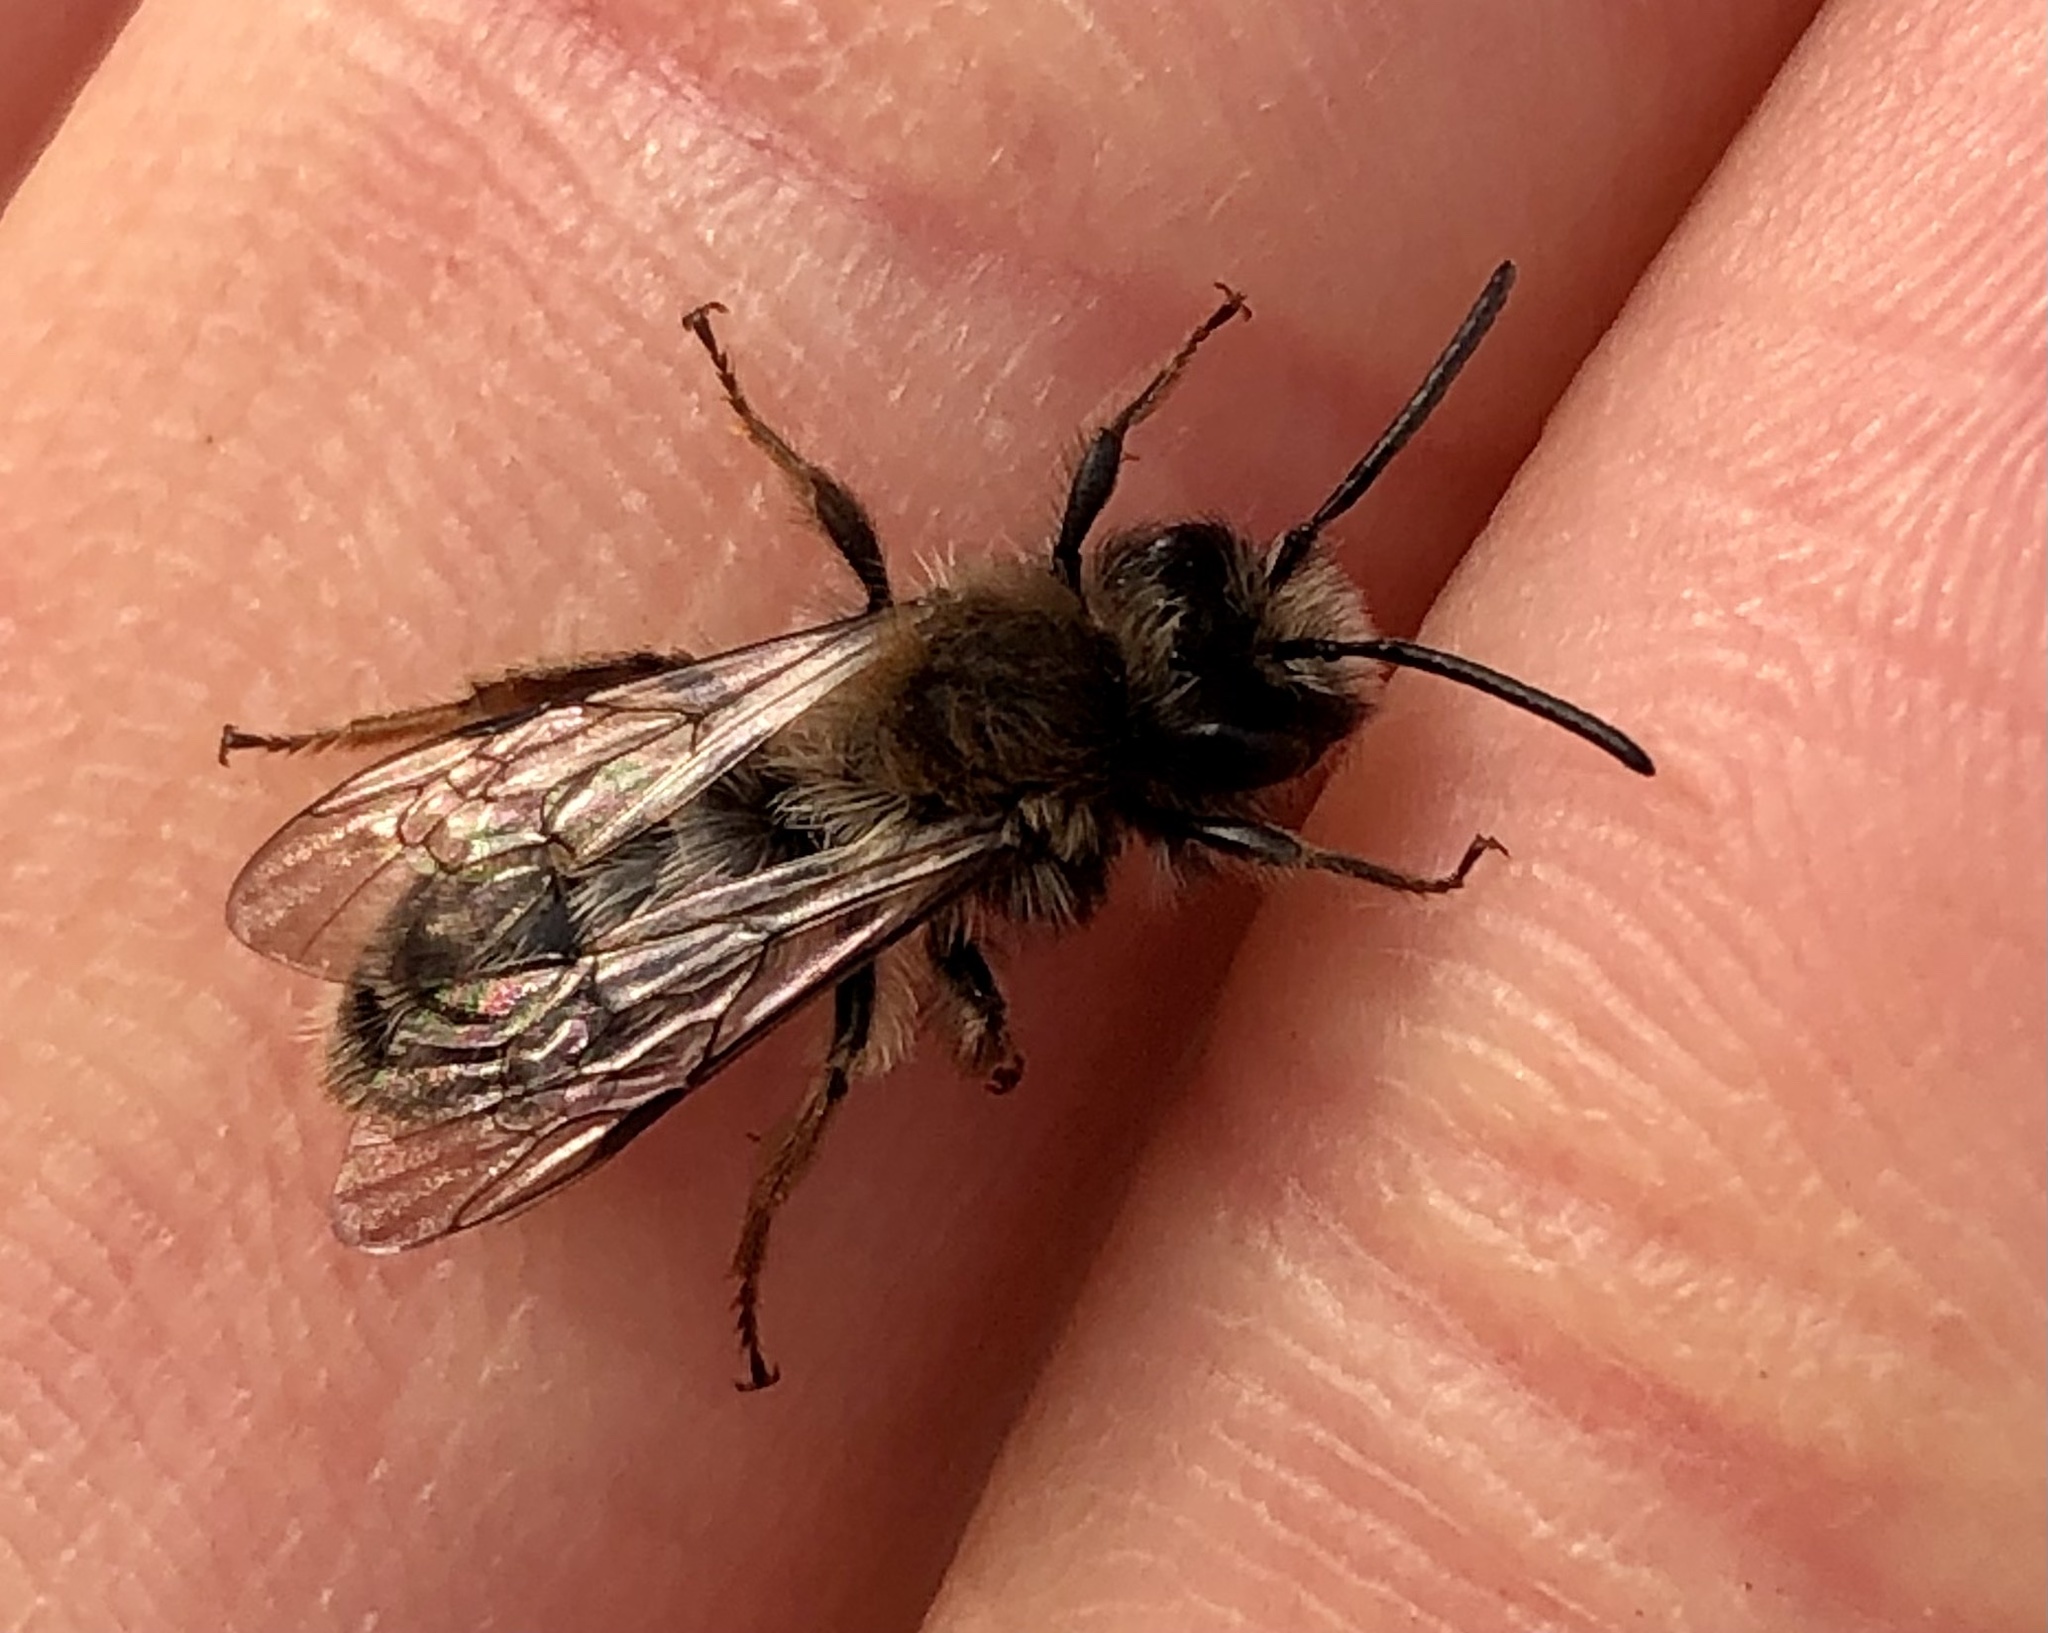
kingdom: Animalia
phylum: Arthropoda
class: Insecta
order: Hymenoptera
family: Andrenidae
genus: Andrena
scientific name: Andrena clarkella
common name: Clarke's mining bee
